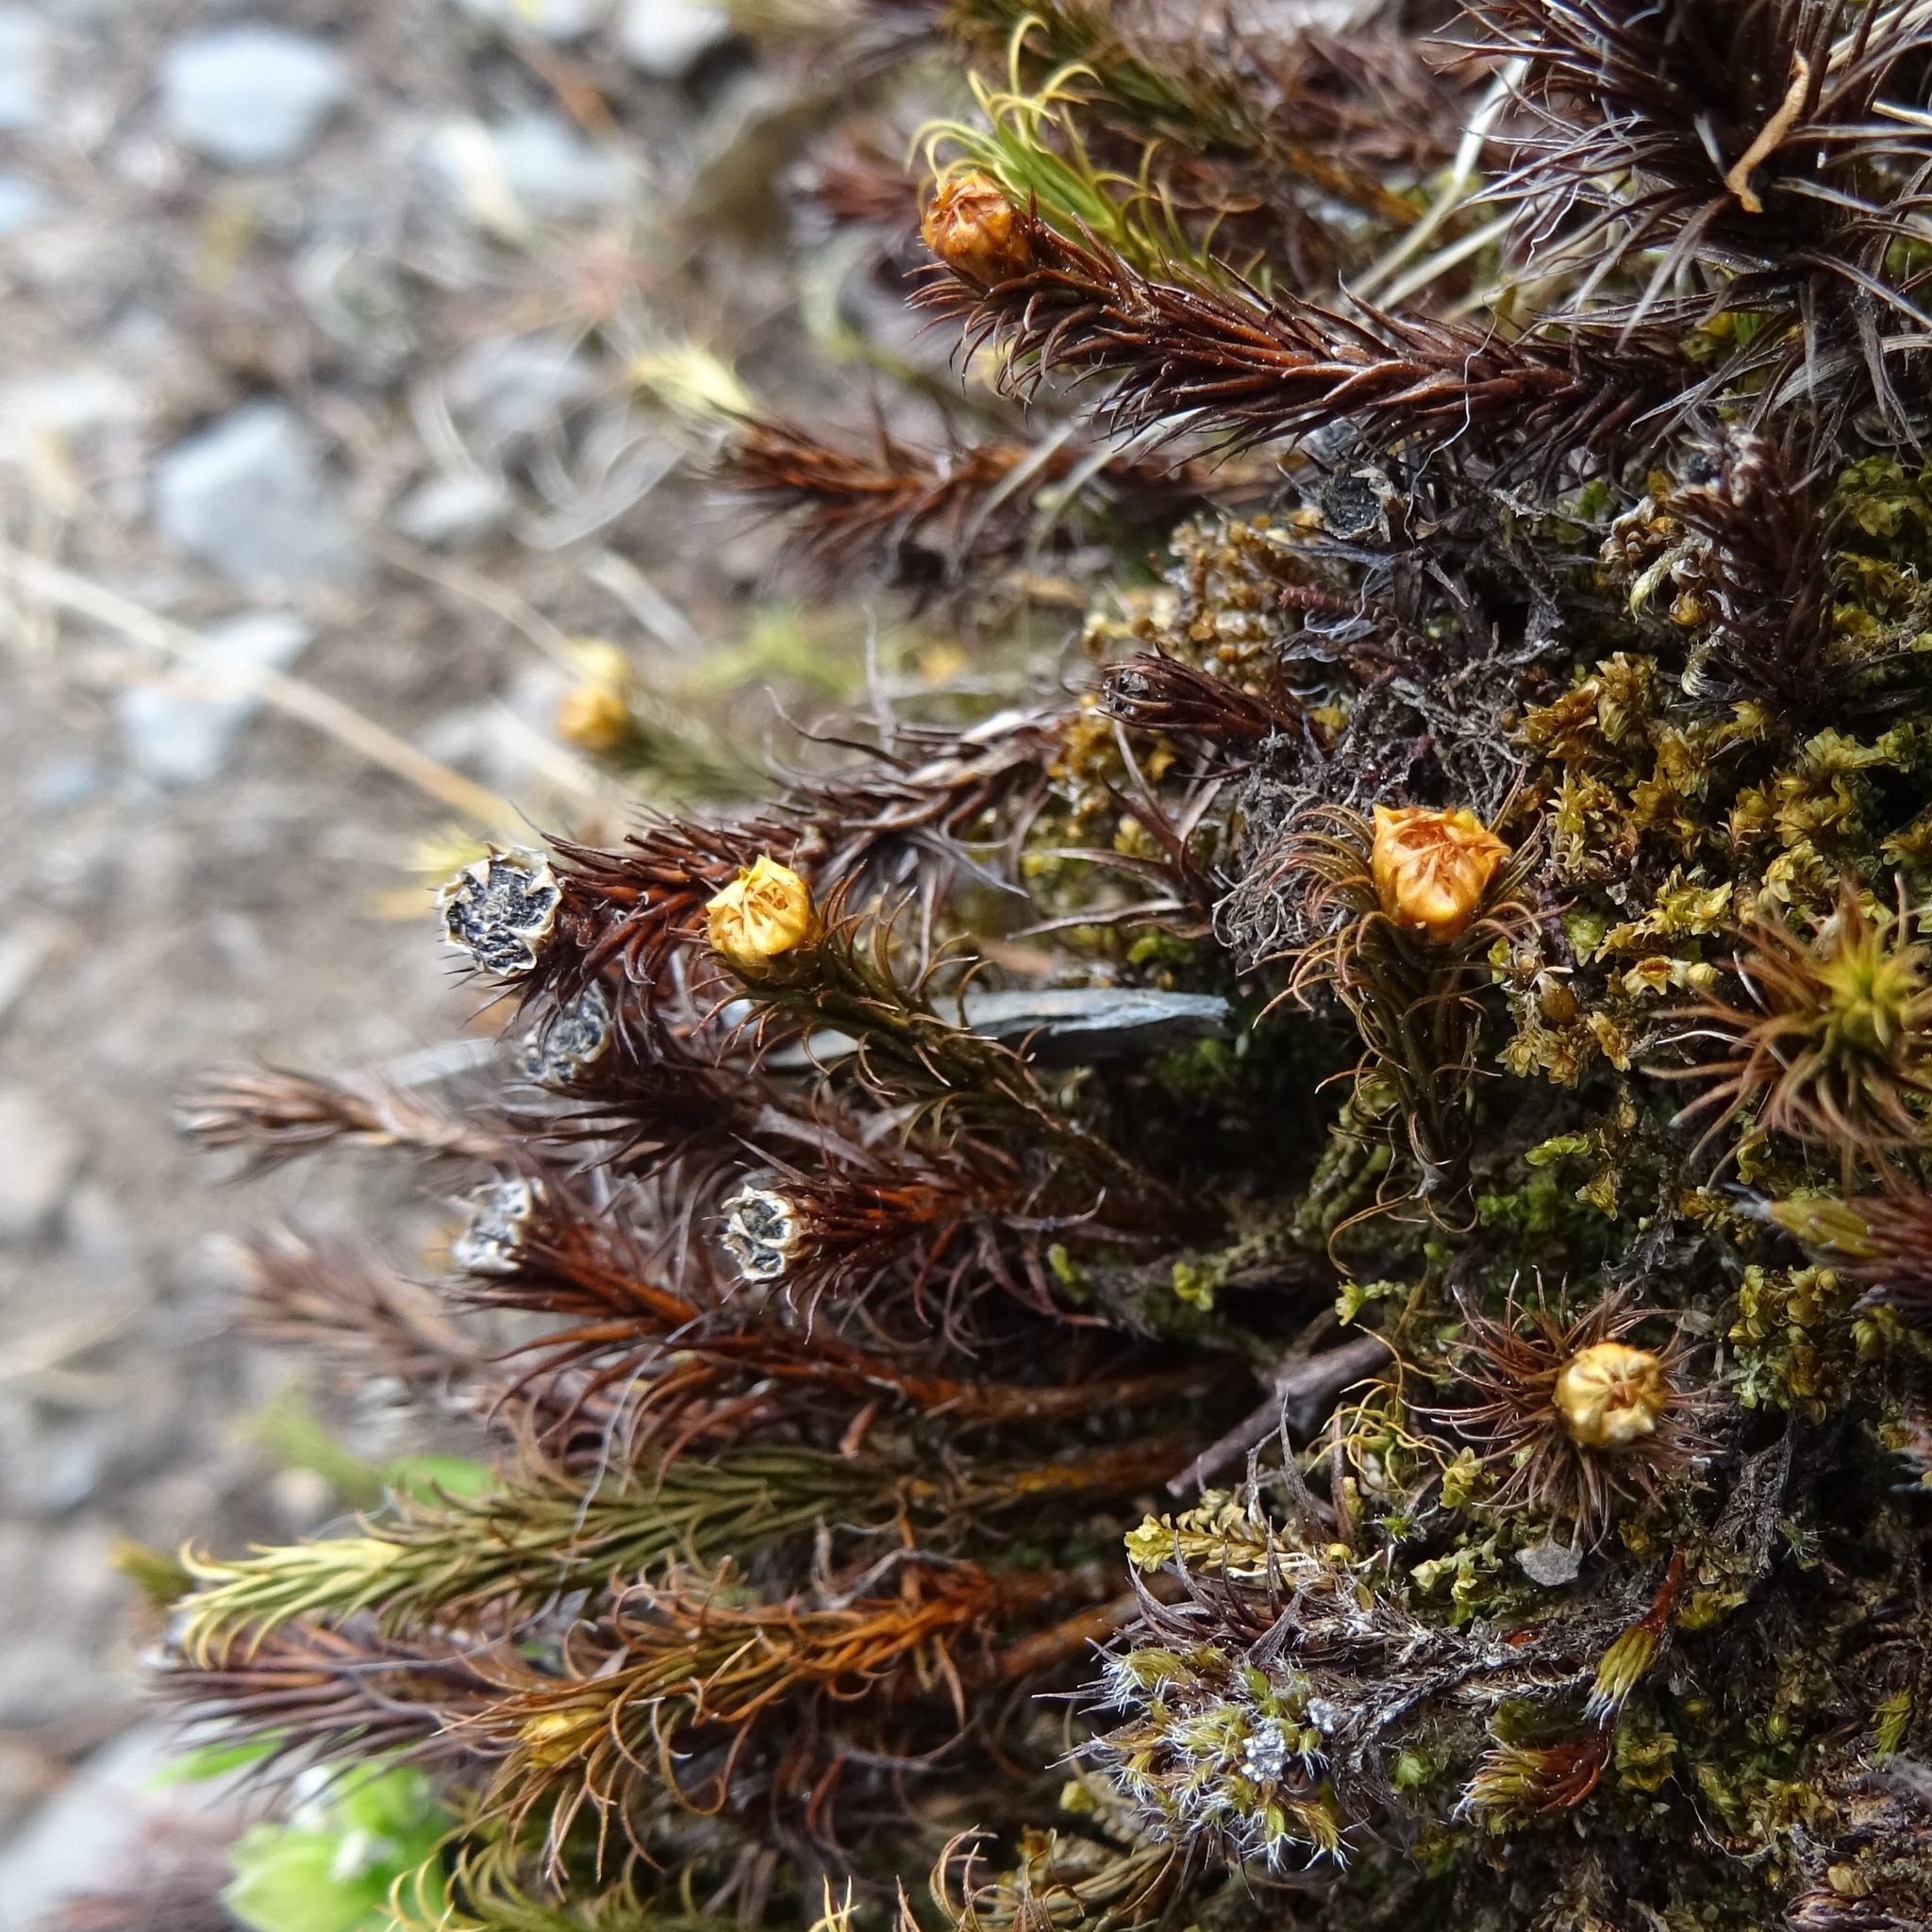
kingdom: Plantae
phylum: Bryophyta
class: Polytrichopsida
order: Polytrichales
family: Polytrichaceae
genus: Polytrichum
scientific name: Polytrichum formosum
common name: Bank haircap moss
